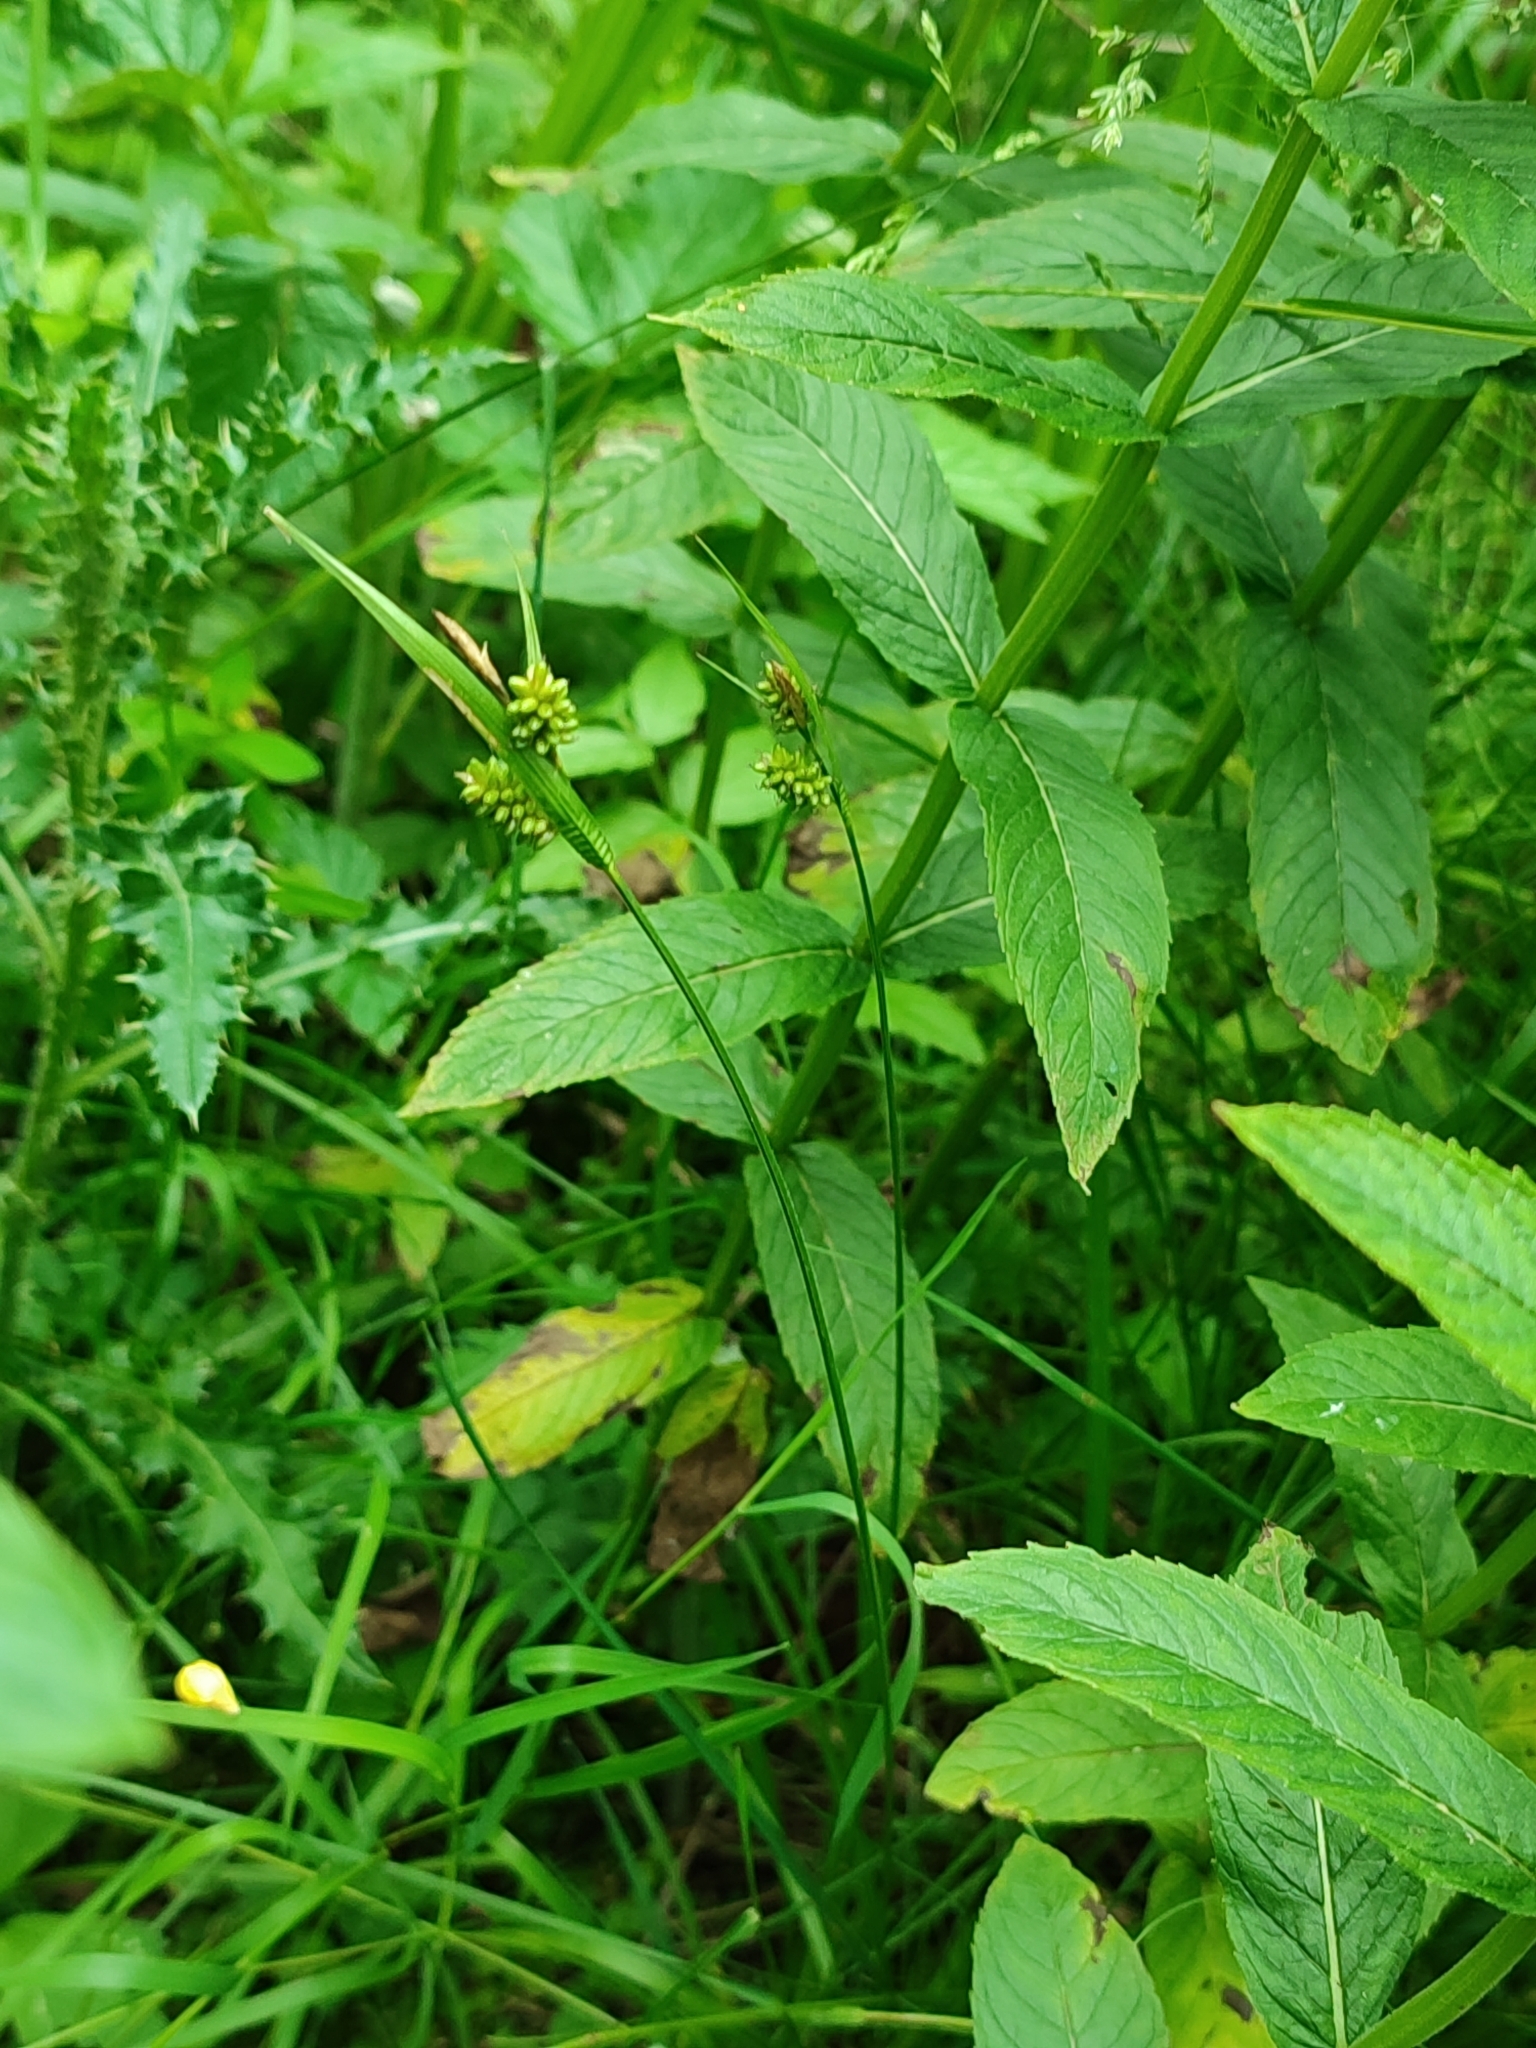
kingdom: Plantae
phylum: Tracheophyta
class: Magnoliopsida
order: Ericales
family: Primulaceae
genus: Lysimachia
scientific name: Lysimachia vulgaris
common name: Yellow loosestrife
